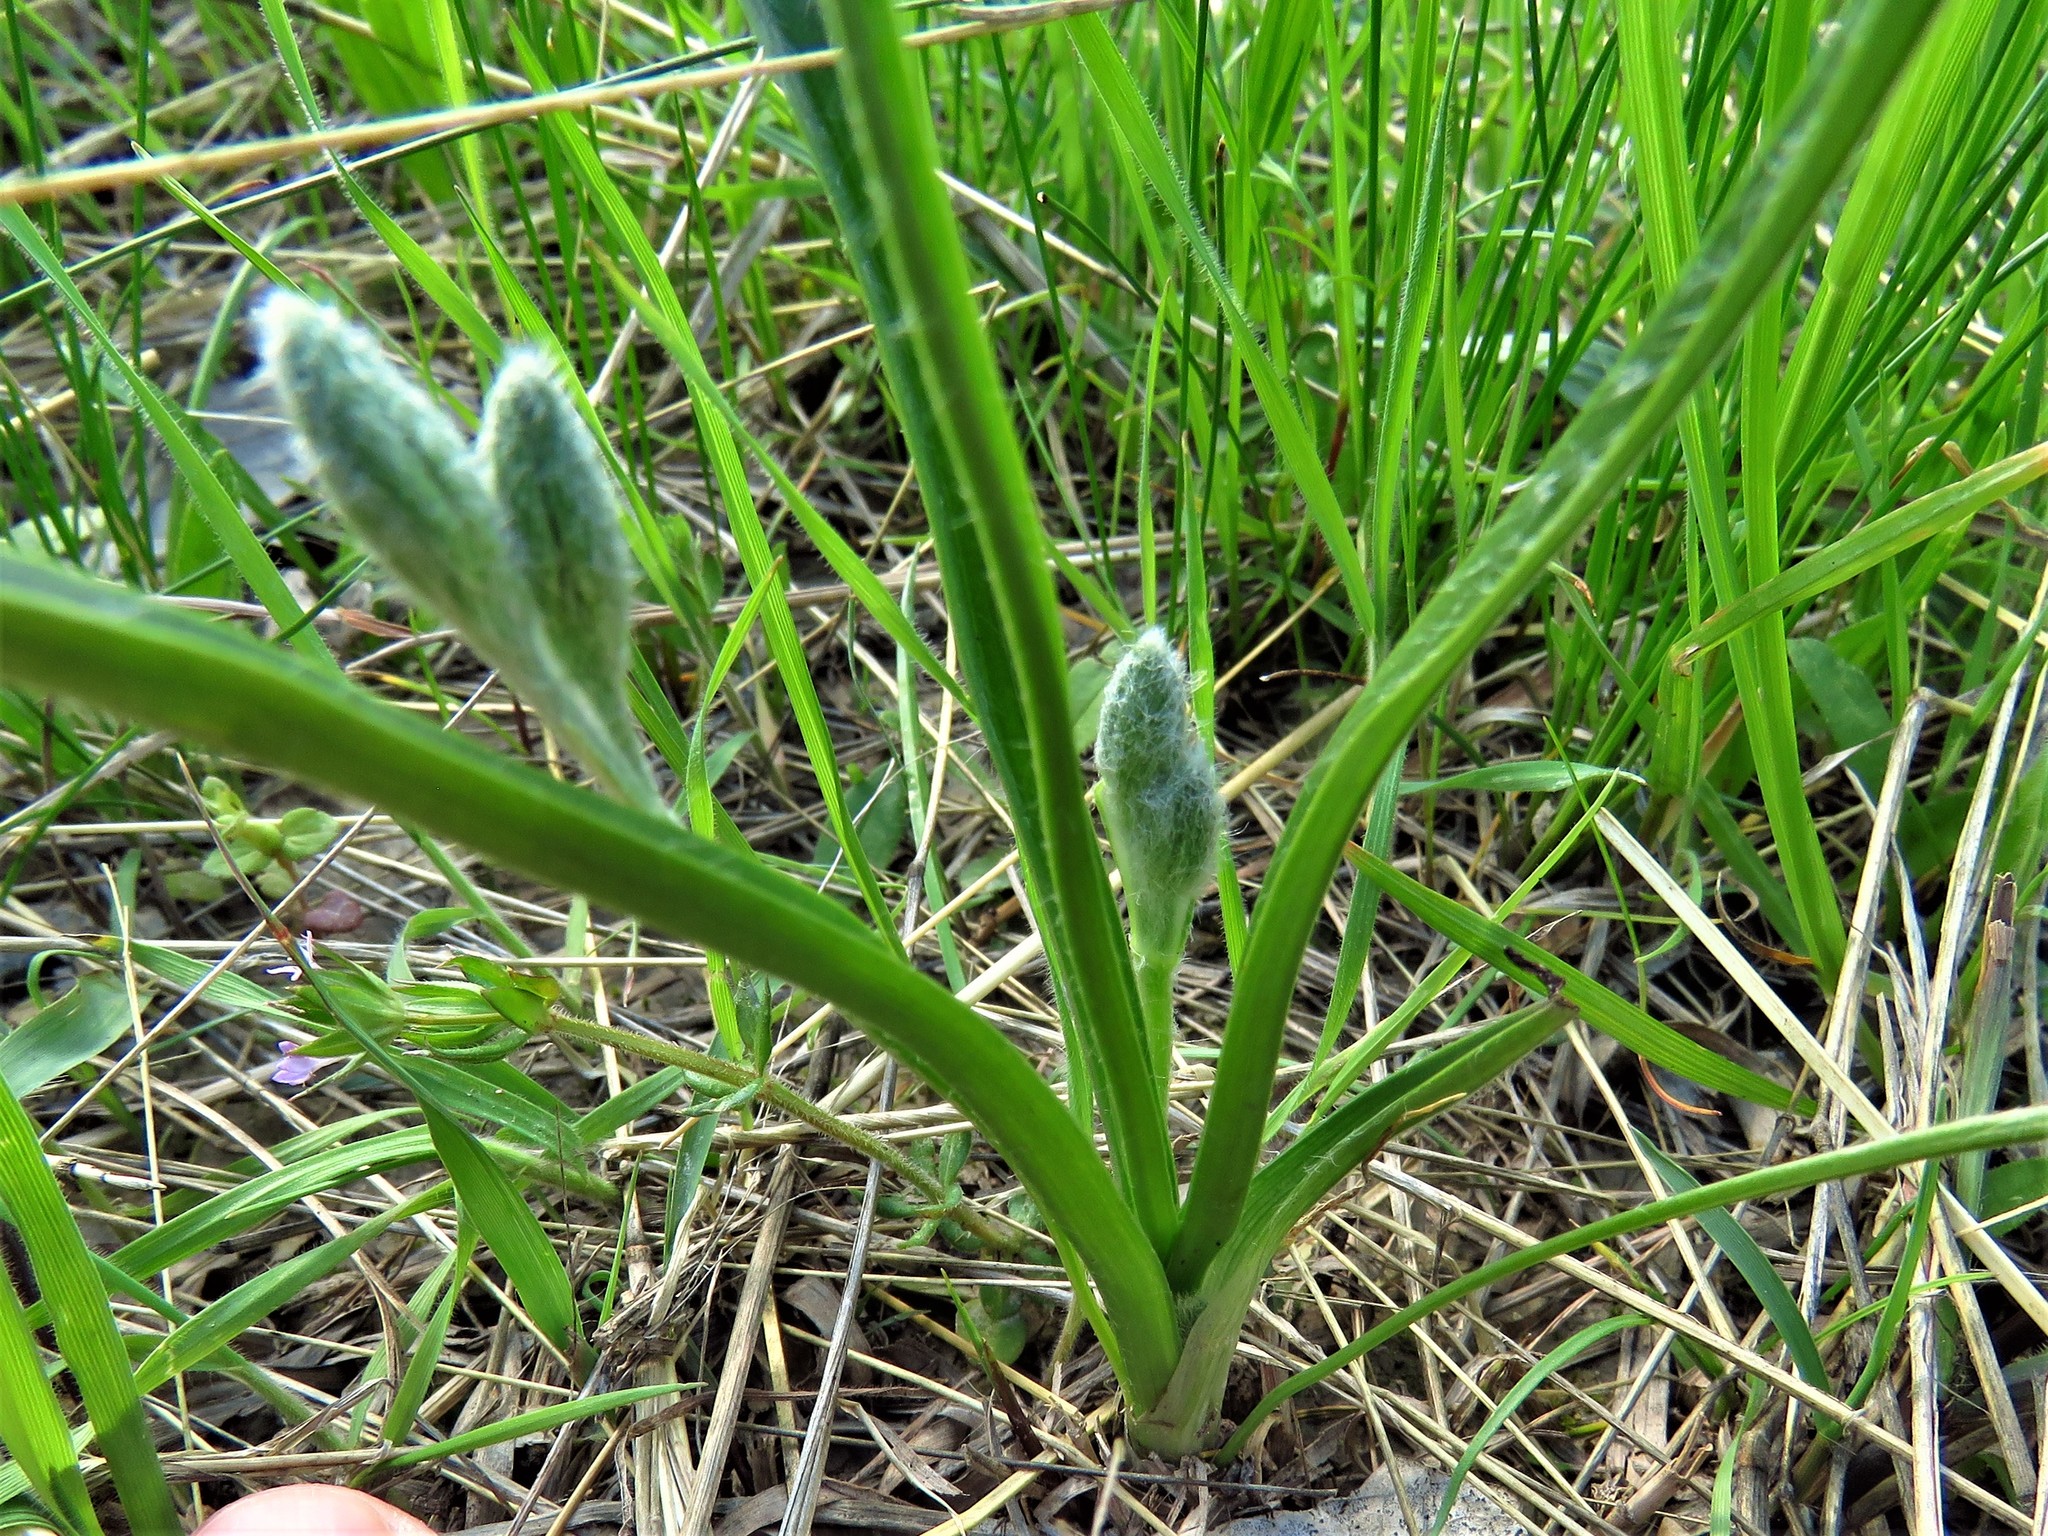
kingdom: Plantae
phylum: Tracheophyta
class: Liliopsida
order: Asparagales
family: Hypoxidaceae
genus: Hypoxis
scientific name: Hypoxis hirsuta
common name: Common goldstar
